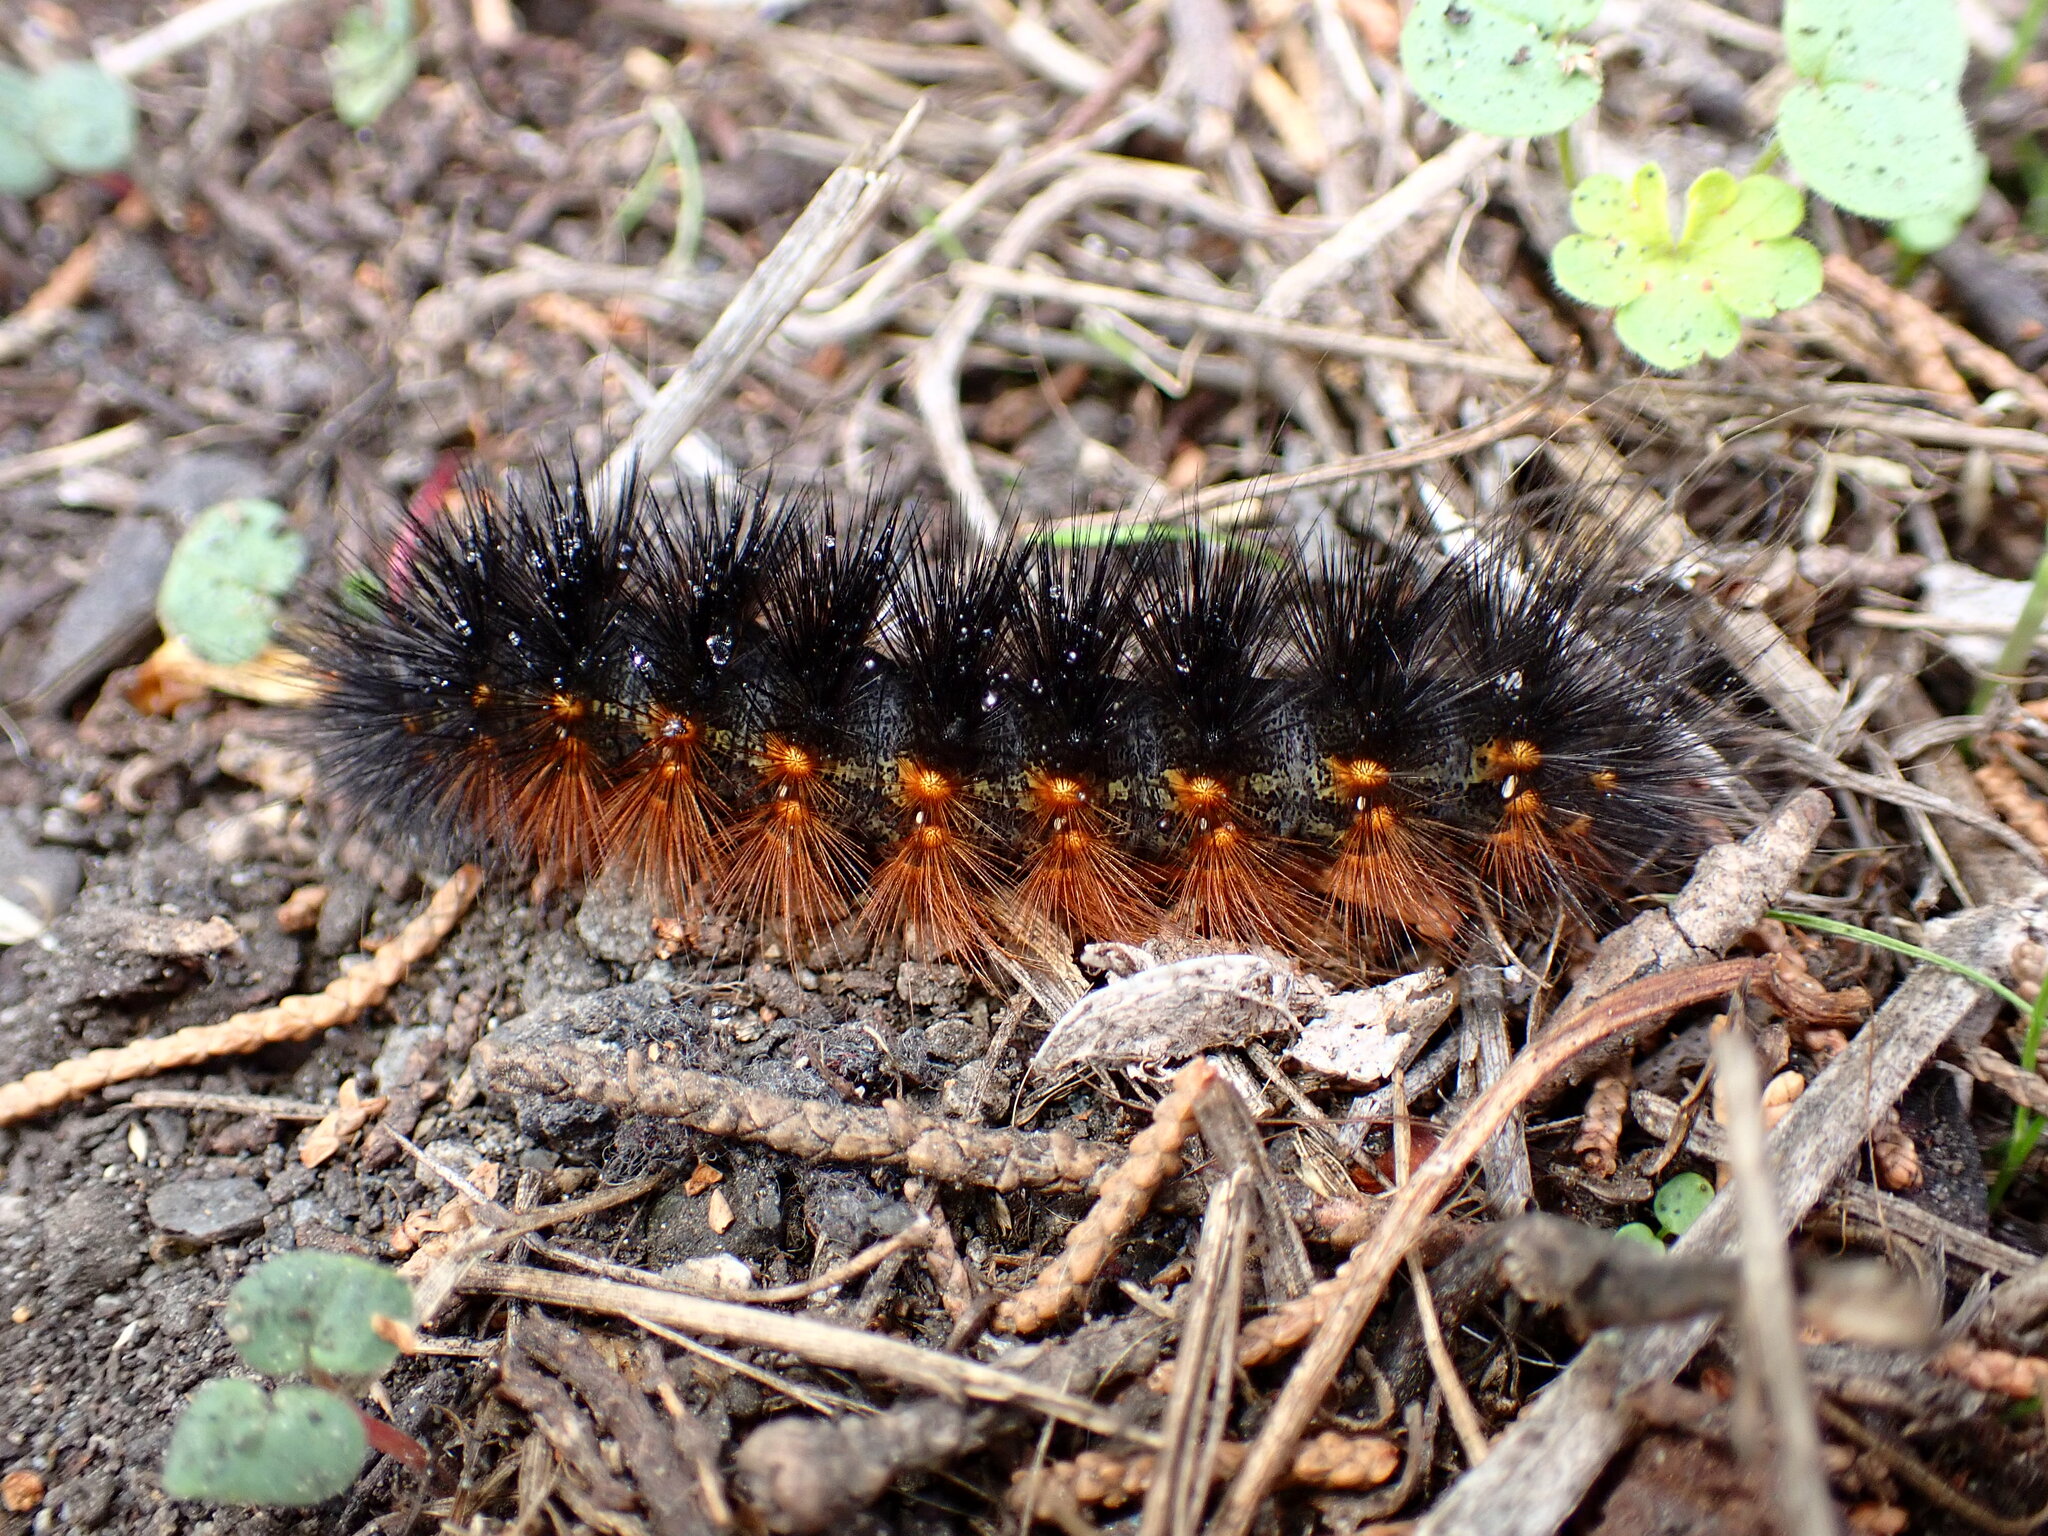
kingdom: Animalia
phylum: Arthropoda
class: Insecta
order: Lepidoptera
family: Erebidae
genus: Estigmene
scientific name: Estigmene acrea
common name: Salt marsh moth
